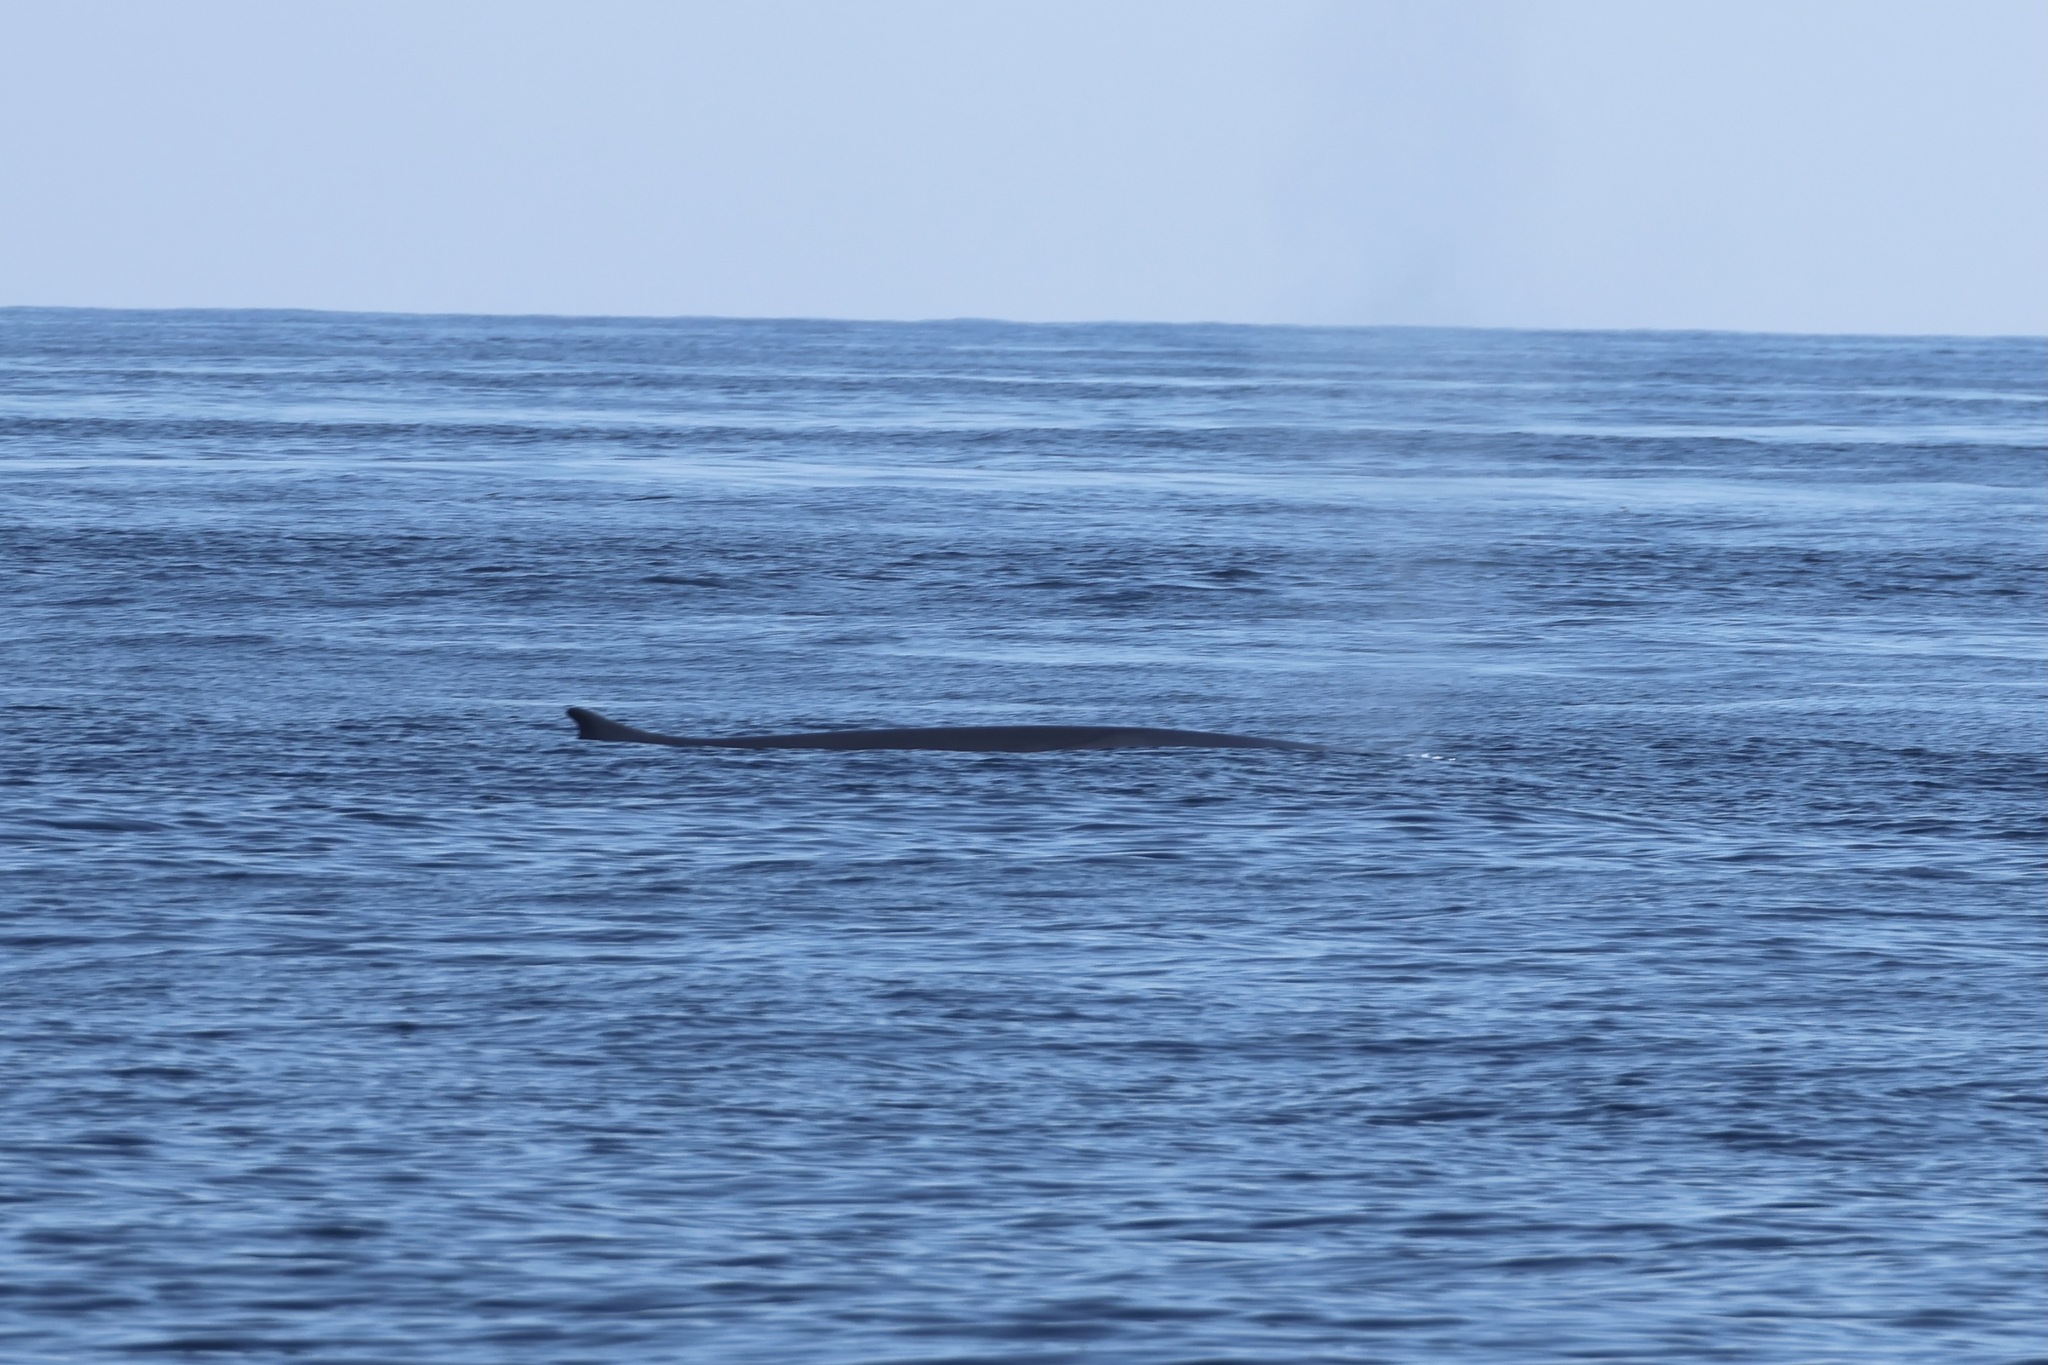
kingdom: Animalia
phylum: Chordata
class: Mammalia
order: Cetacea
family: Balaenopteridae
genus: Balaenoptera
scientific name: Balaenoptera physalus
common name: Fin whale
